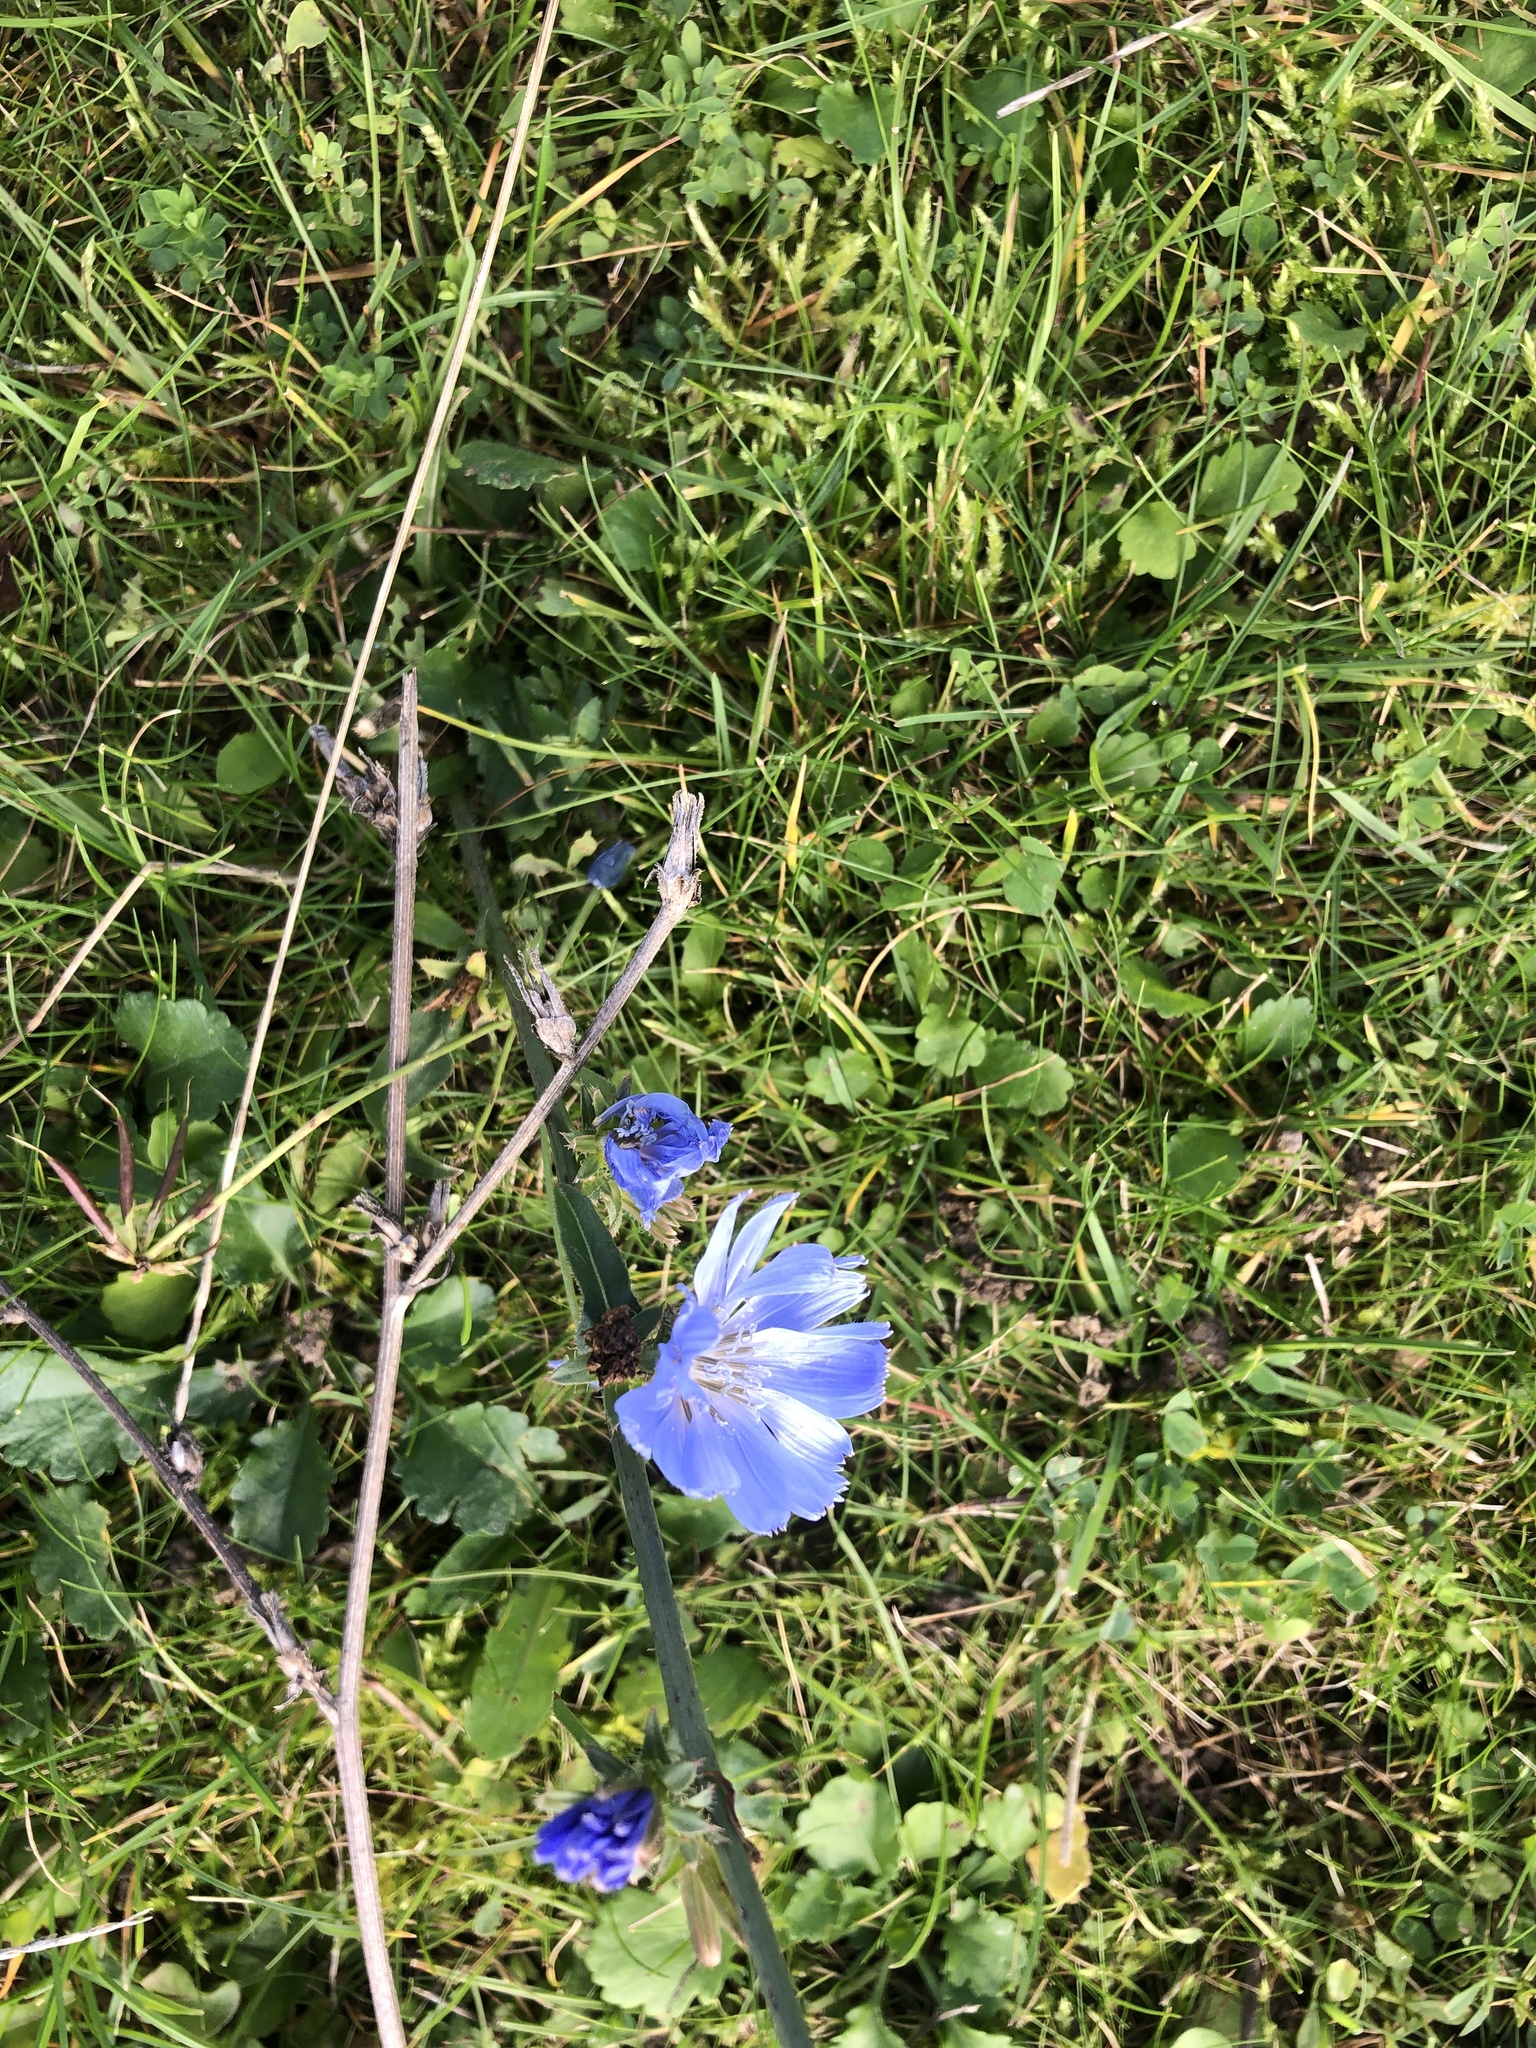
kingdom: Plantae
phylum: Tracheophyta
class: Magnoliopsida
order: Asterales
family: Asteraceae
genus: Cichorium
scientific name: Cichorium intybus
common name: Chicory
